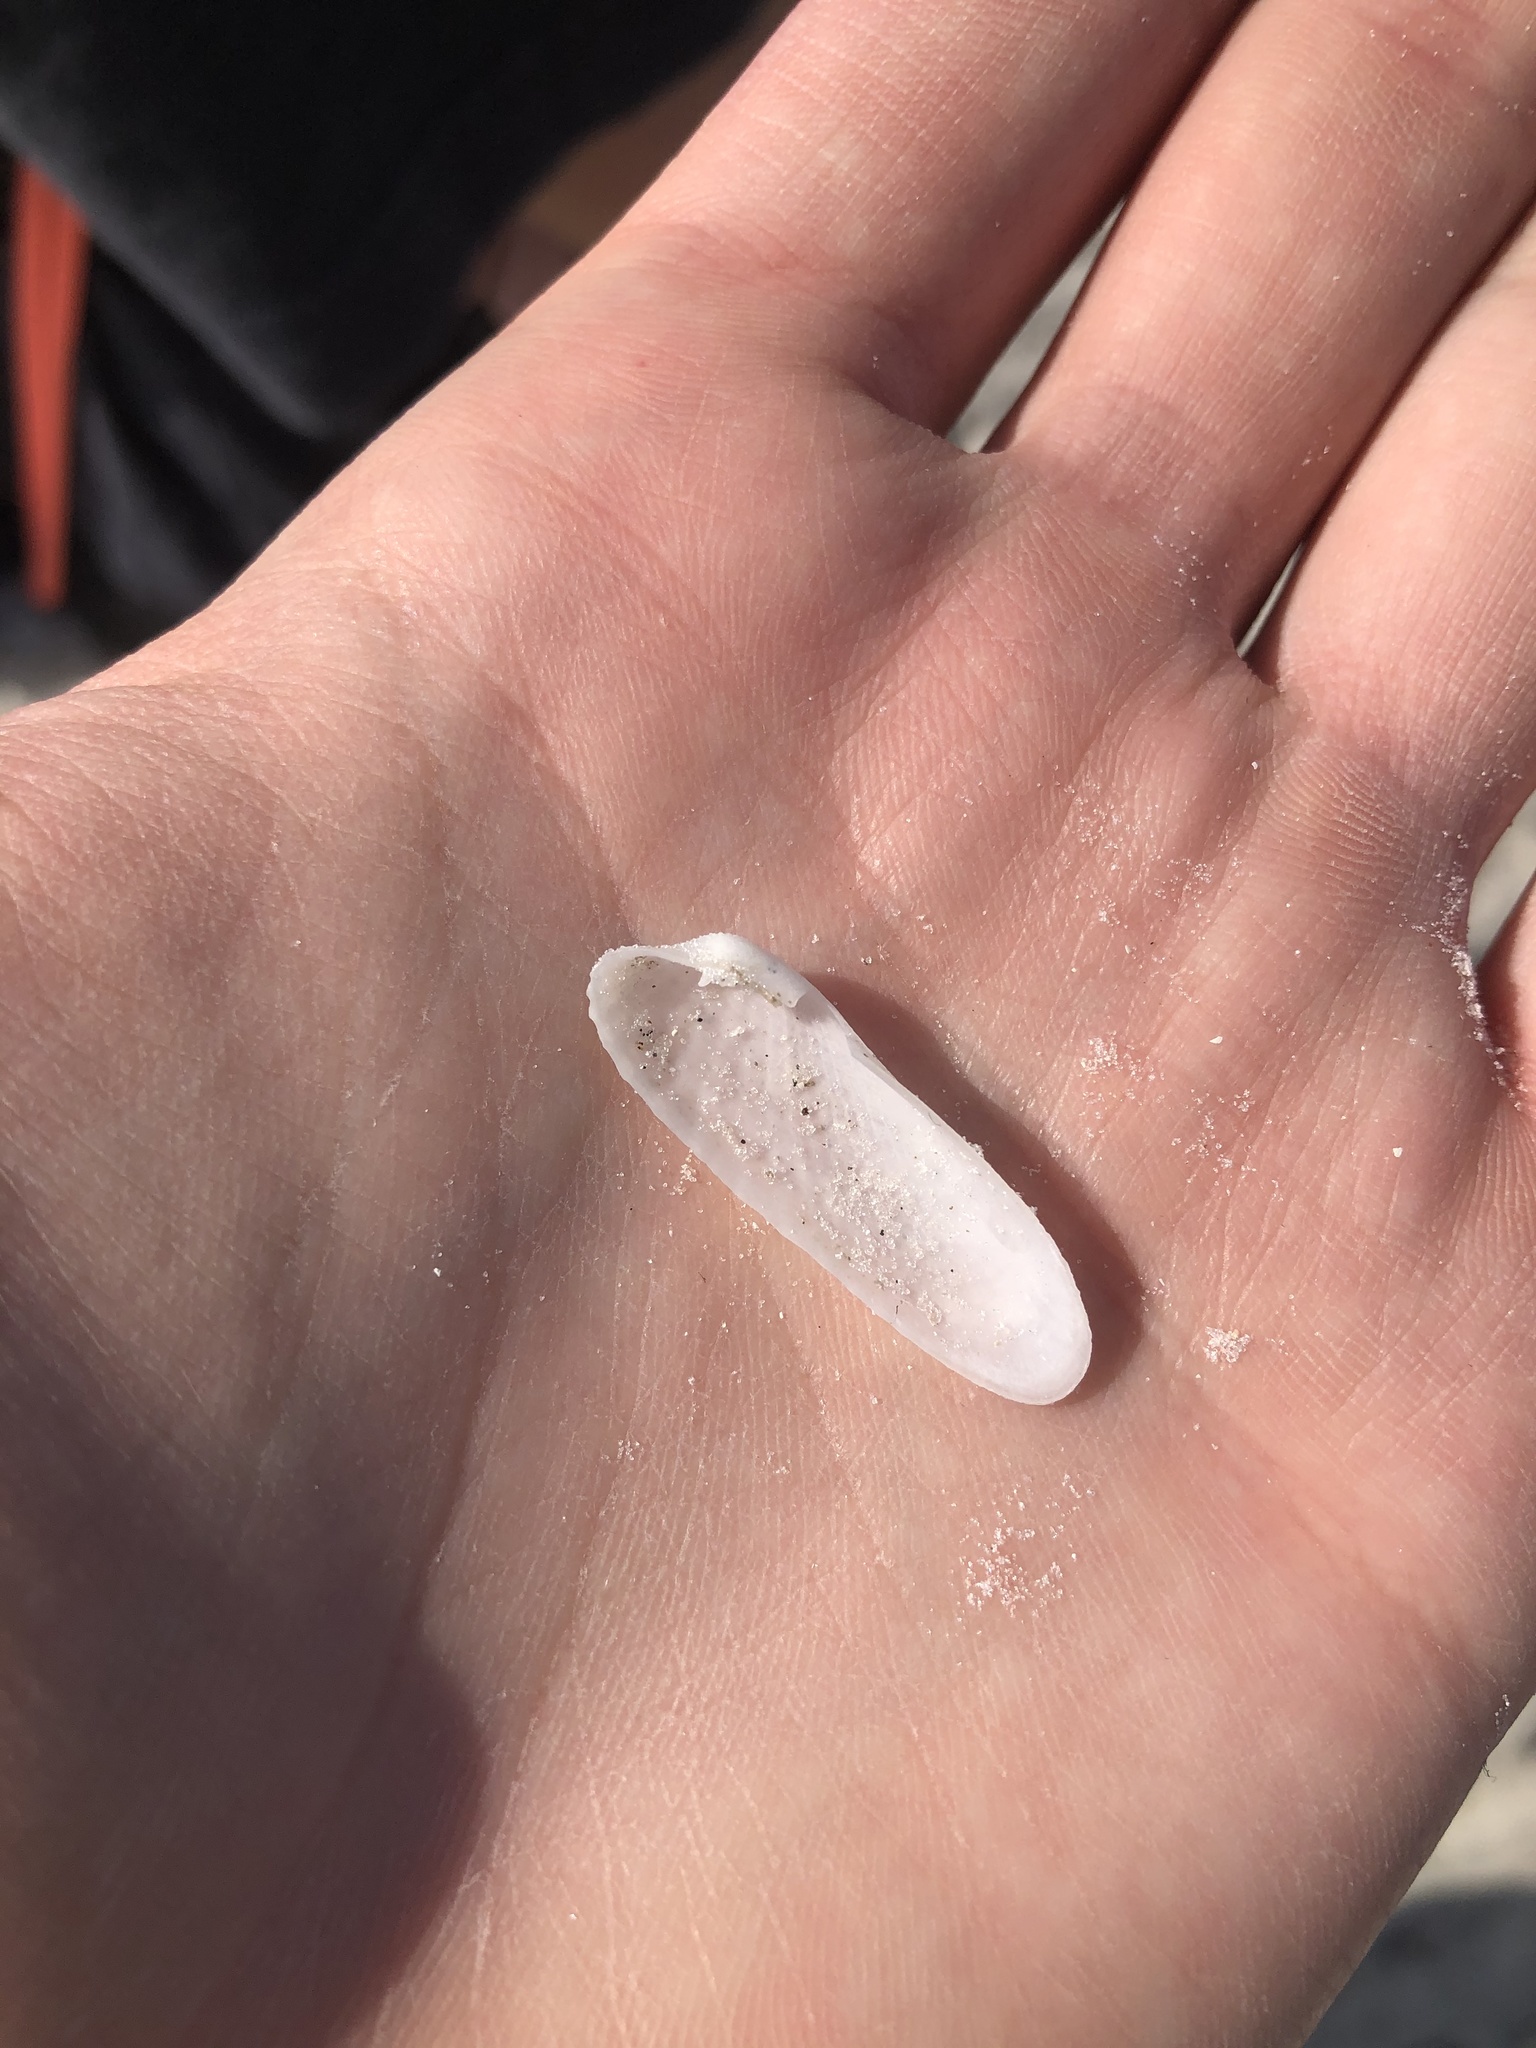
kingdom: Animalia
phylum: Mollusca
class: Bivalvia
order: Venerida
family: Veneridae
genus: Petricolaria
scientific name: Petricolaria pholadiformis
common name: American piddock
